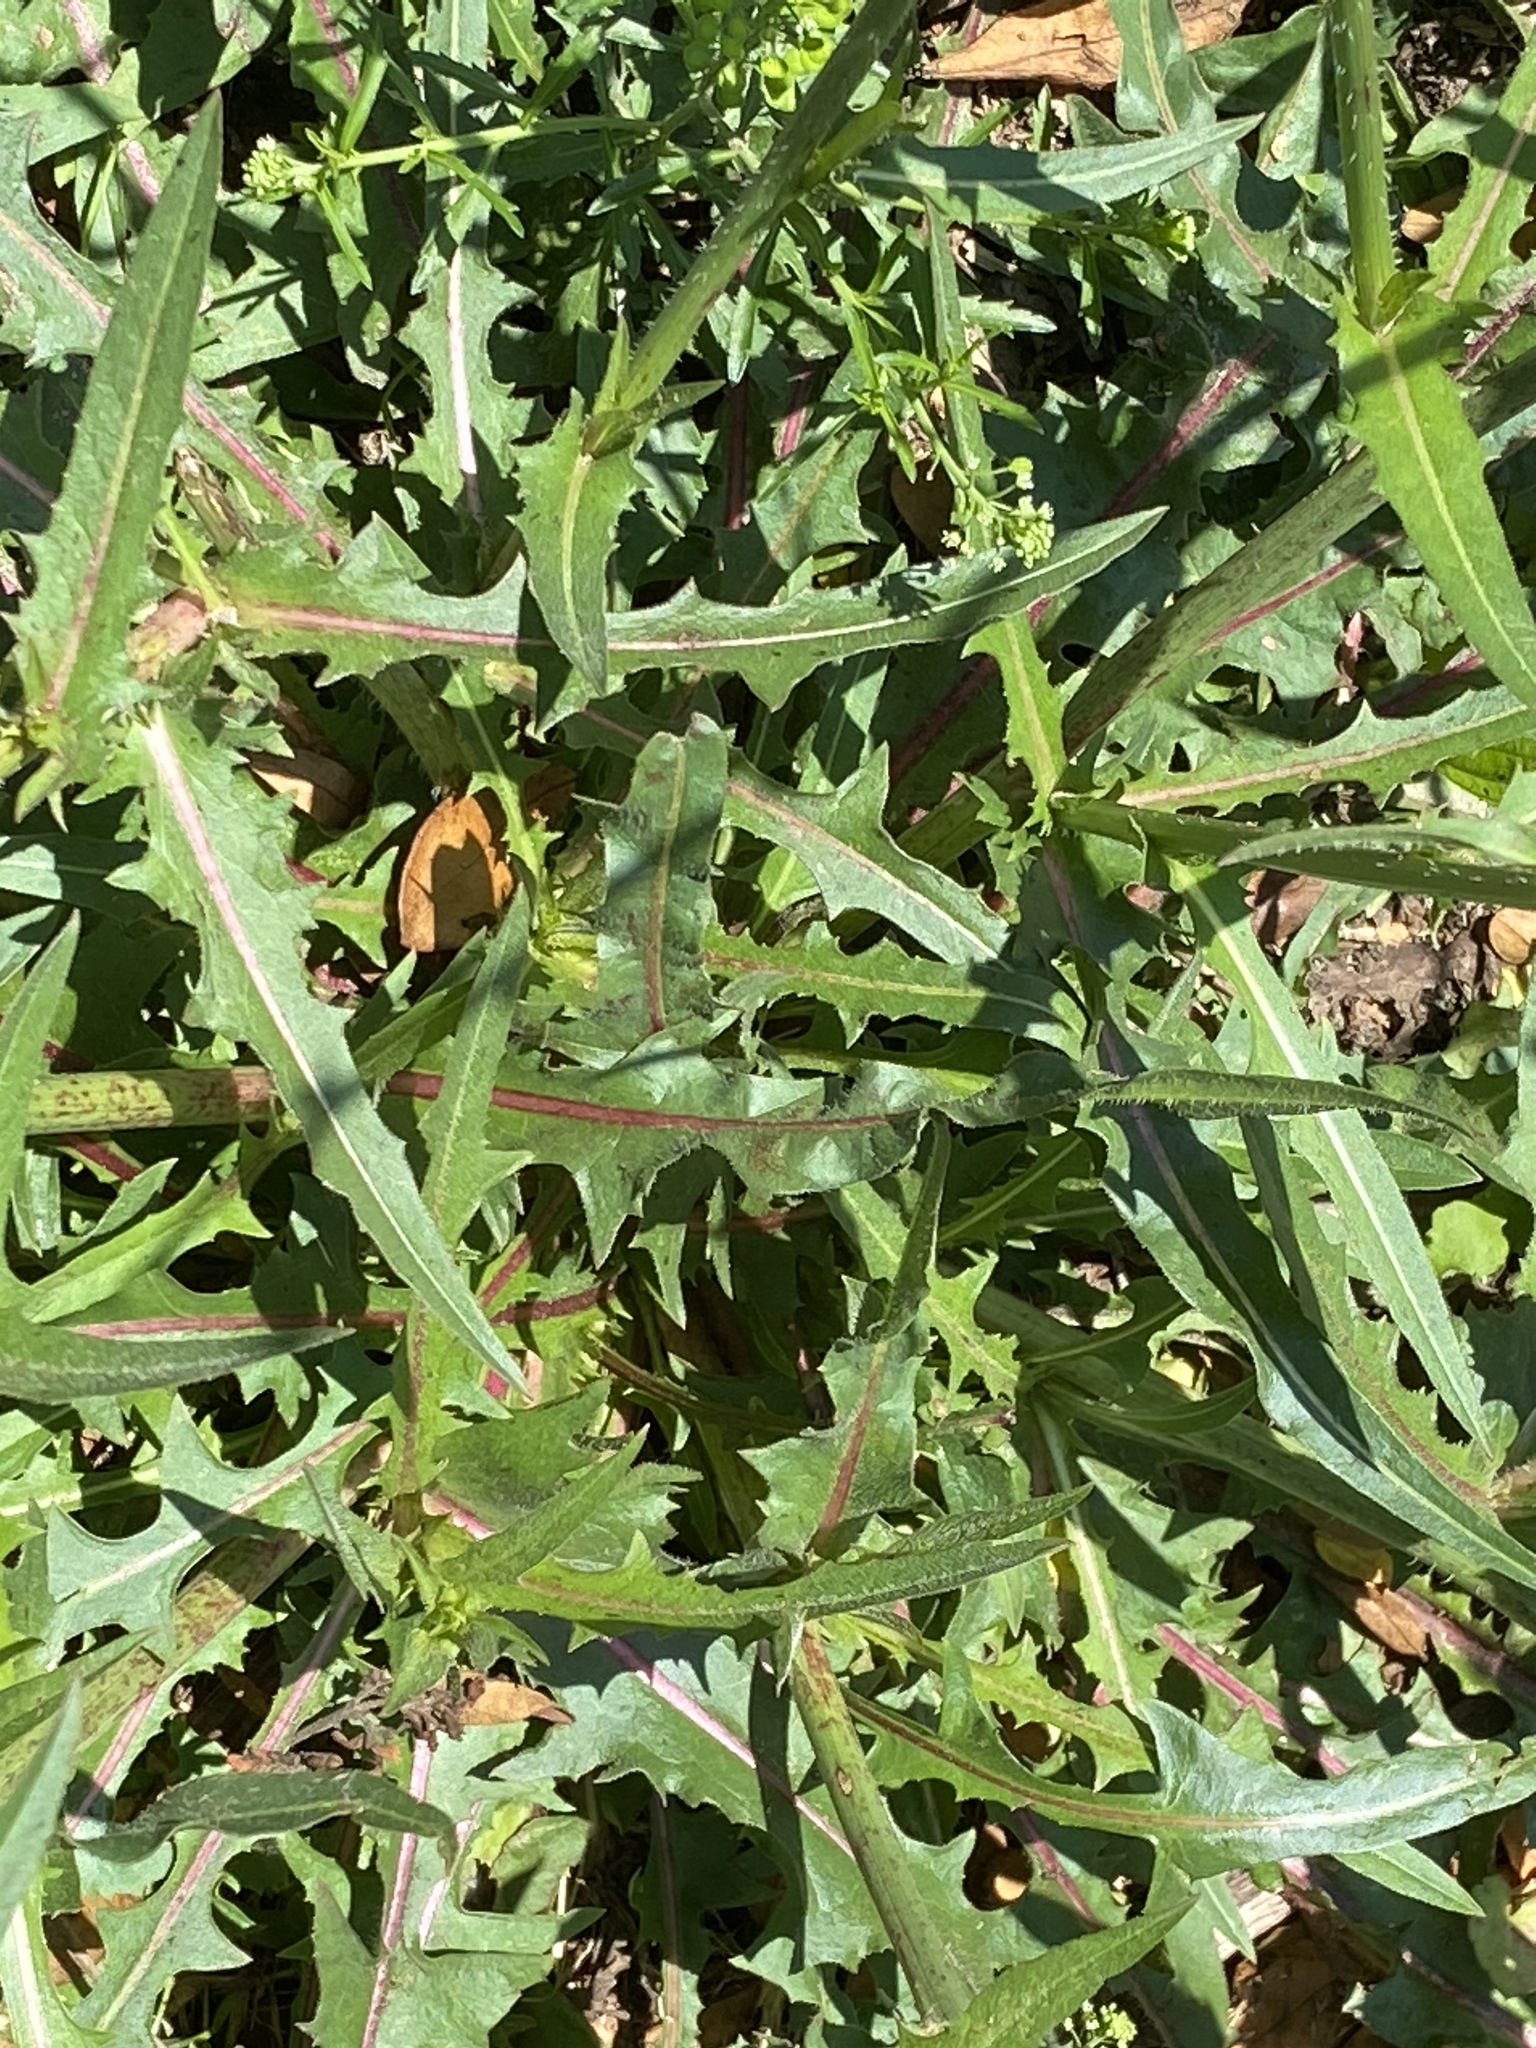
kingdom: Plantae
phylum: Tracheophyta
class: Magnoliopsida
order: Asterales
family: Asteraceae
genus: Cichorium
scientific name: Cichorium intybus
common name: Chicory
